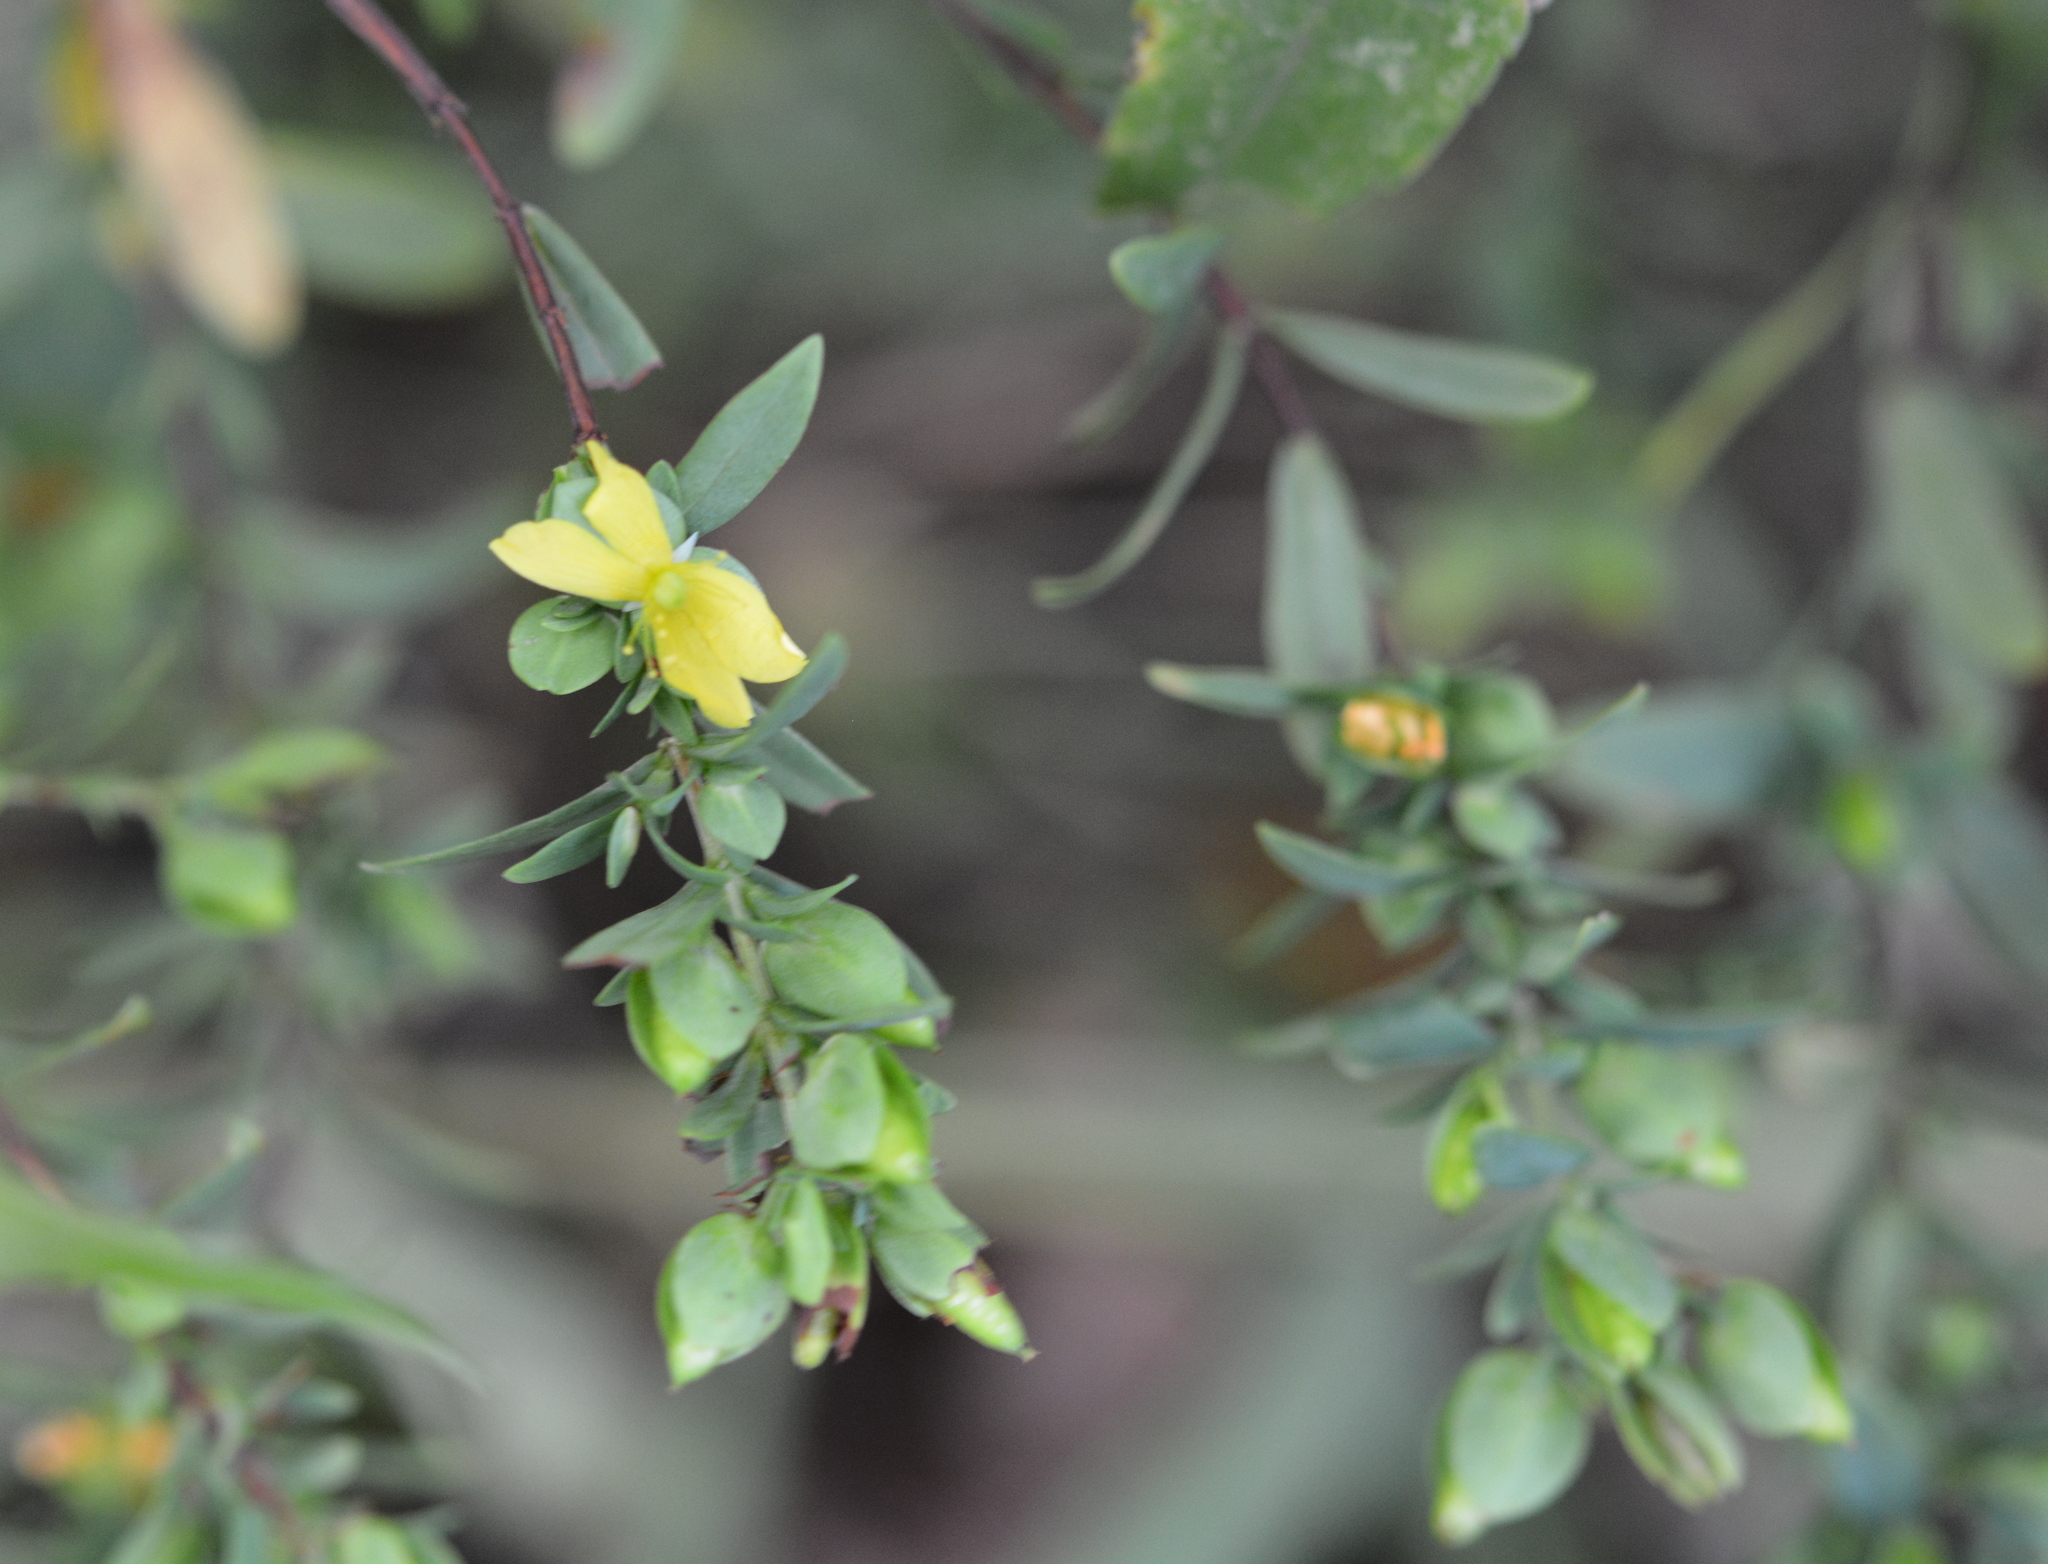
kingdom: Plantae
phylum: Tracheophyta
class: Magnoliopsida
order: Malpighiales
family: Hypericaceae
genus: Hypericum
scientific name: Hypericum hypericoides
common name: St. andrew's cross
